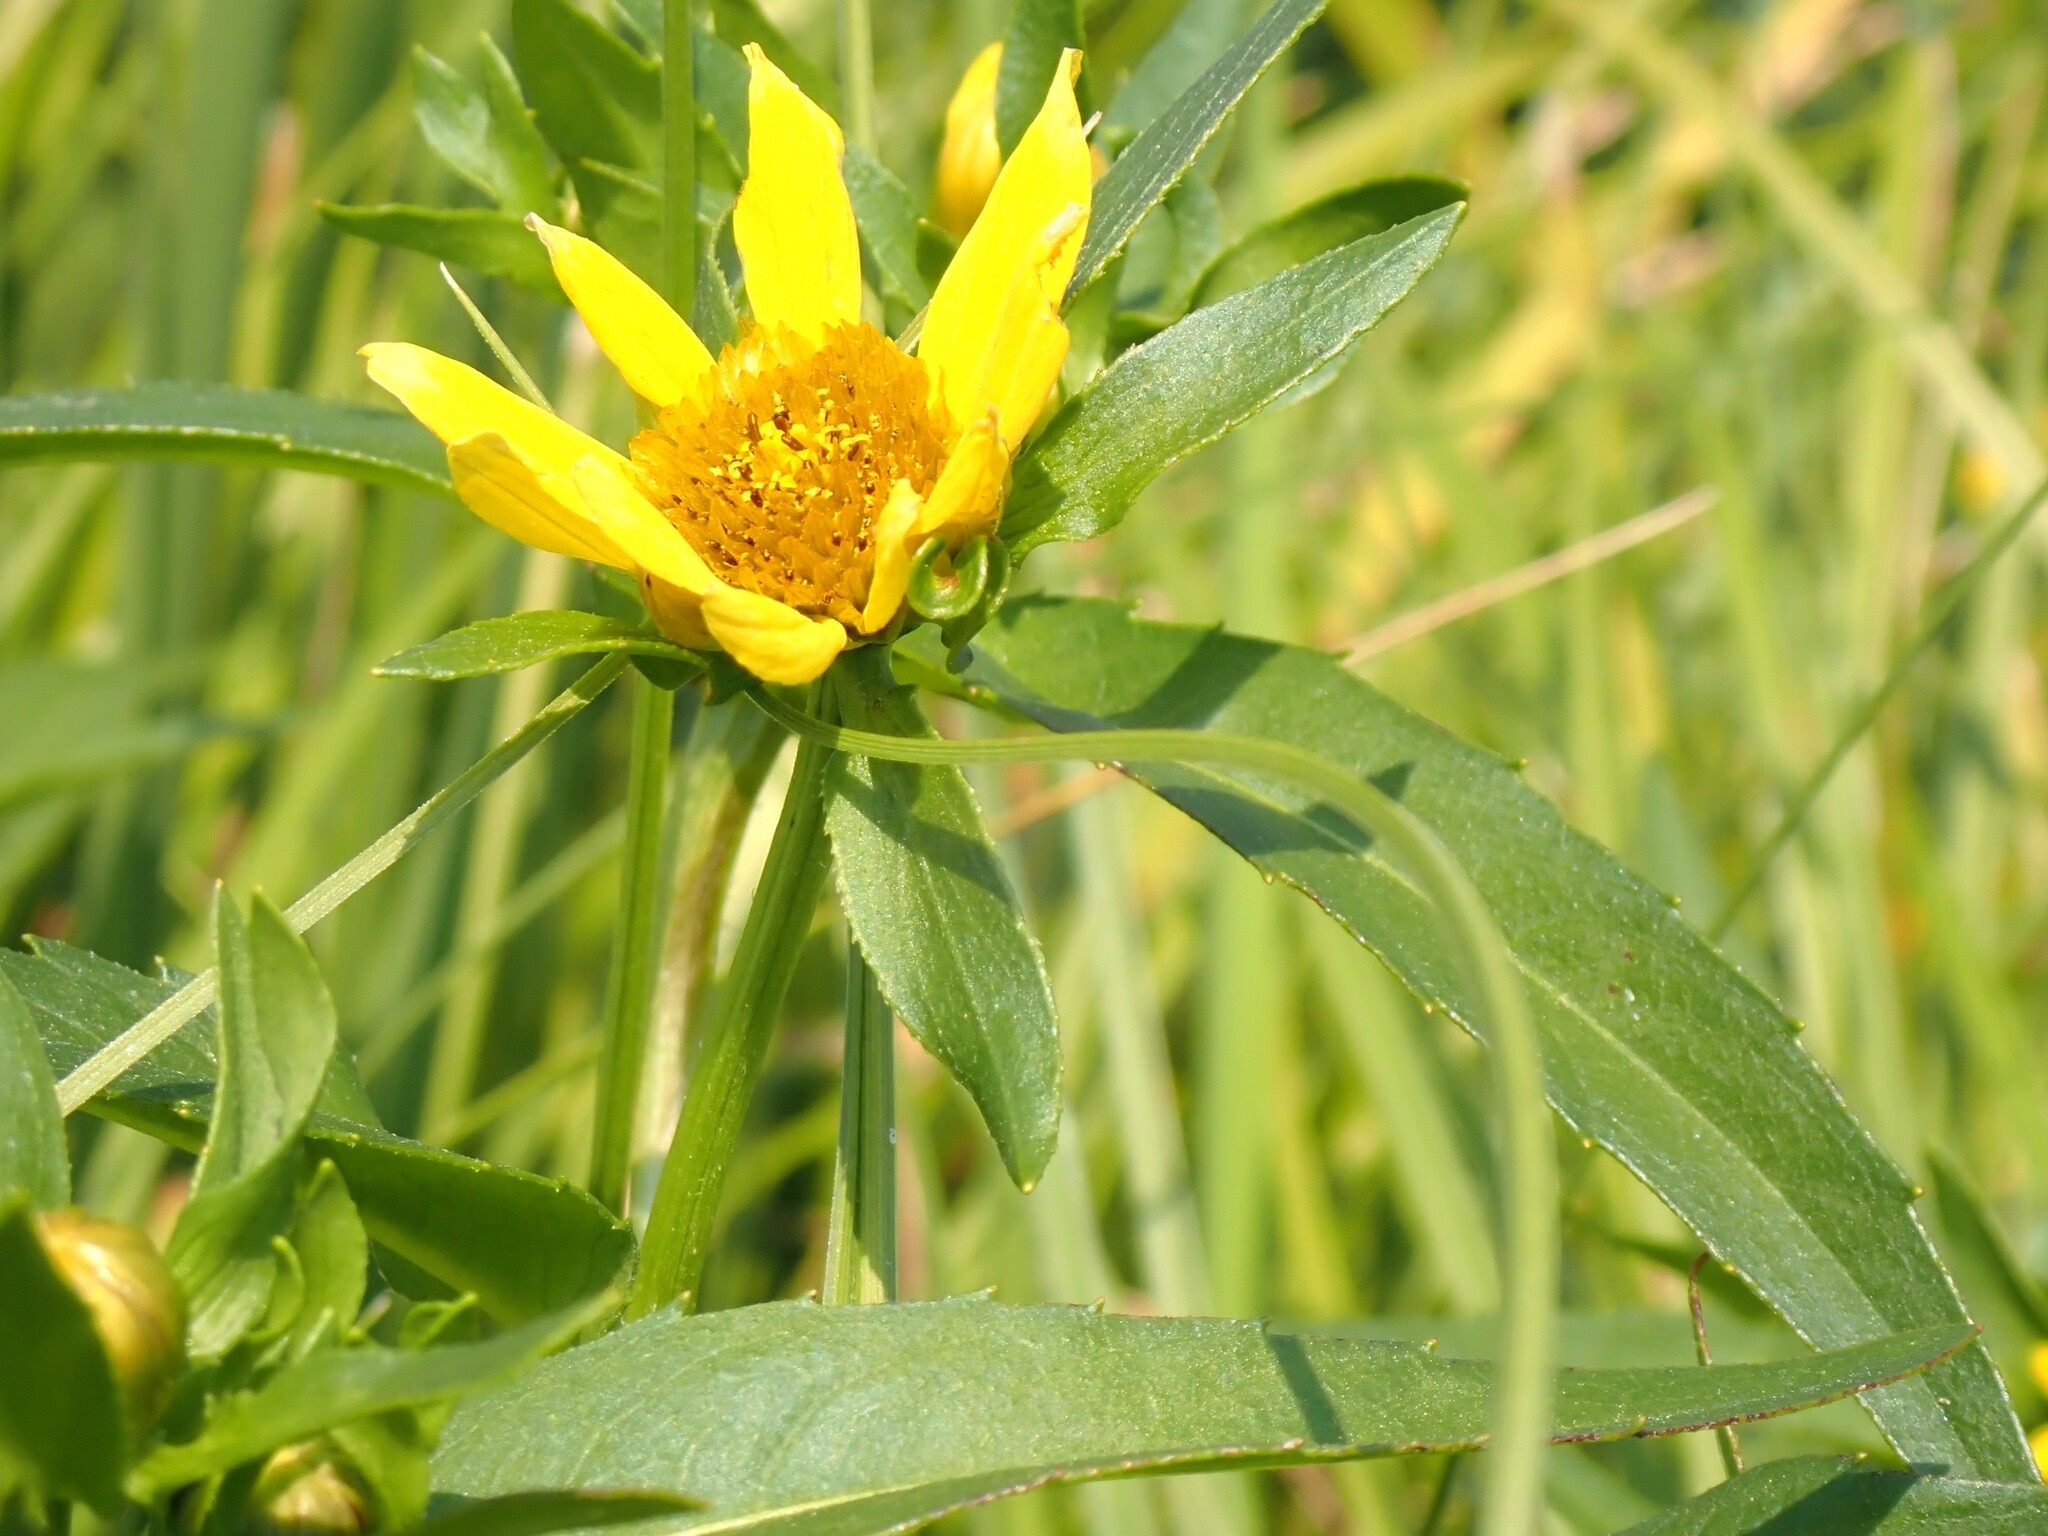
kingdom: Plantae
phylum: Tracheophyta
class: Magnoliopsida
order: Asterales
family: Asteraceae
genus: Bidens
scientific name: Bidens cernua
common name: Nodding bur-marigold
